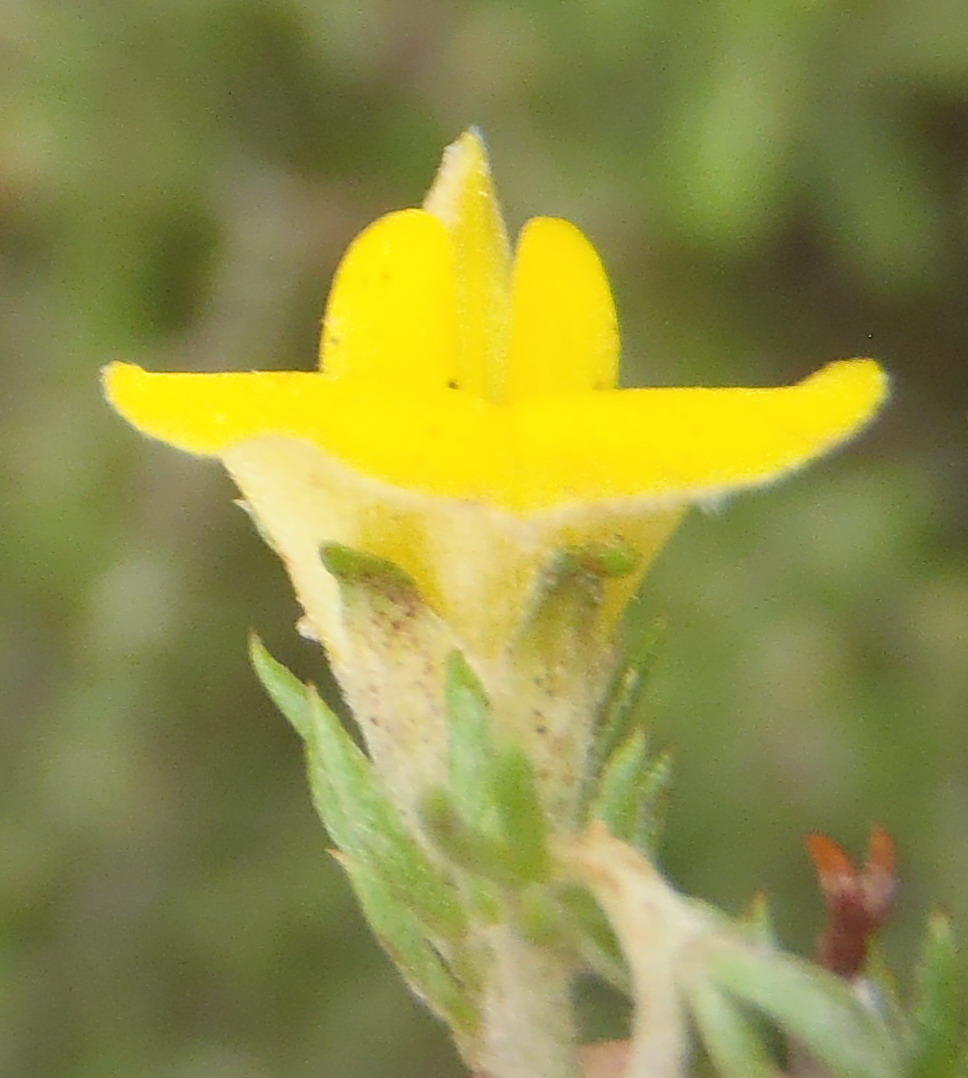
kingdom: Plantae
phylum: Tracheophyta
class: Magnoliopsida
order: Fabales
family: Fabaceae
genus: Aspalathus
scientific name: Aspalathus opaca
